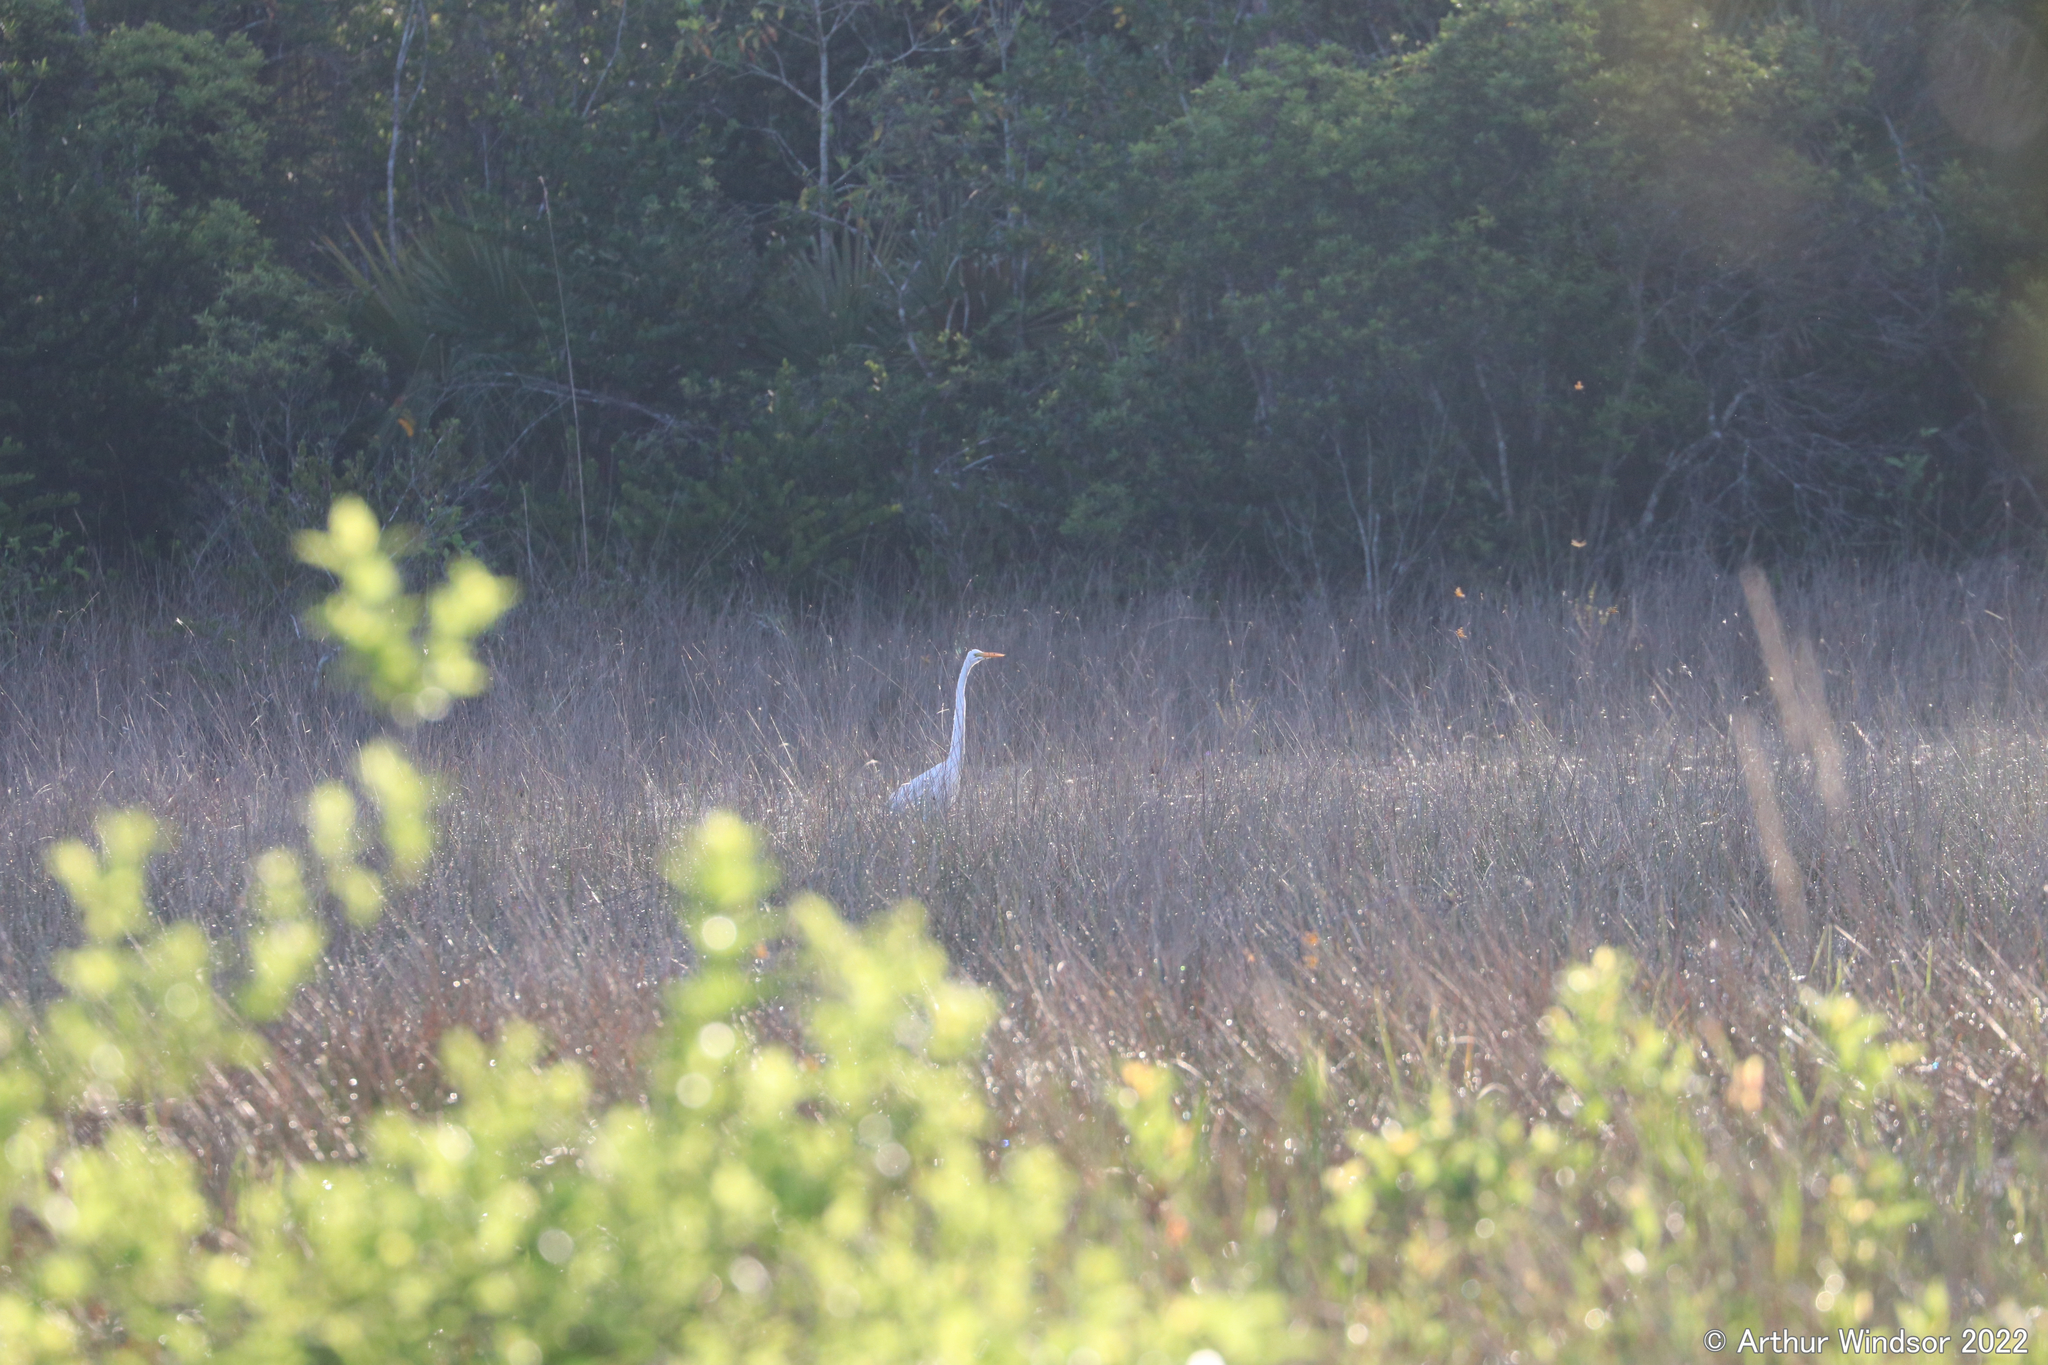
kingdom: Animalia
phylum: Chordata
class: Aves
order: Pelecaniformes
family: Ardeidae
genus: Ardea
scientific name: Ardea alba
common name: Great egret
